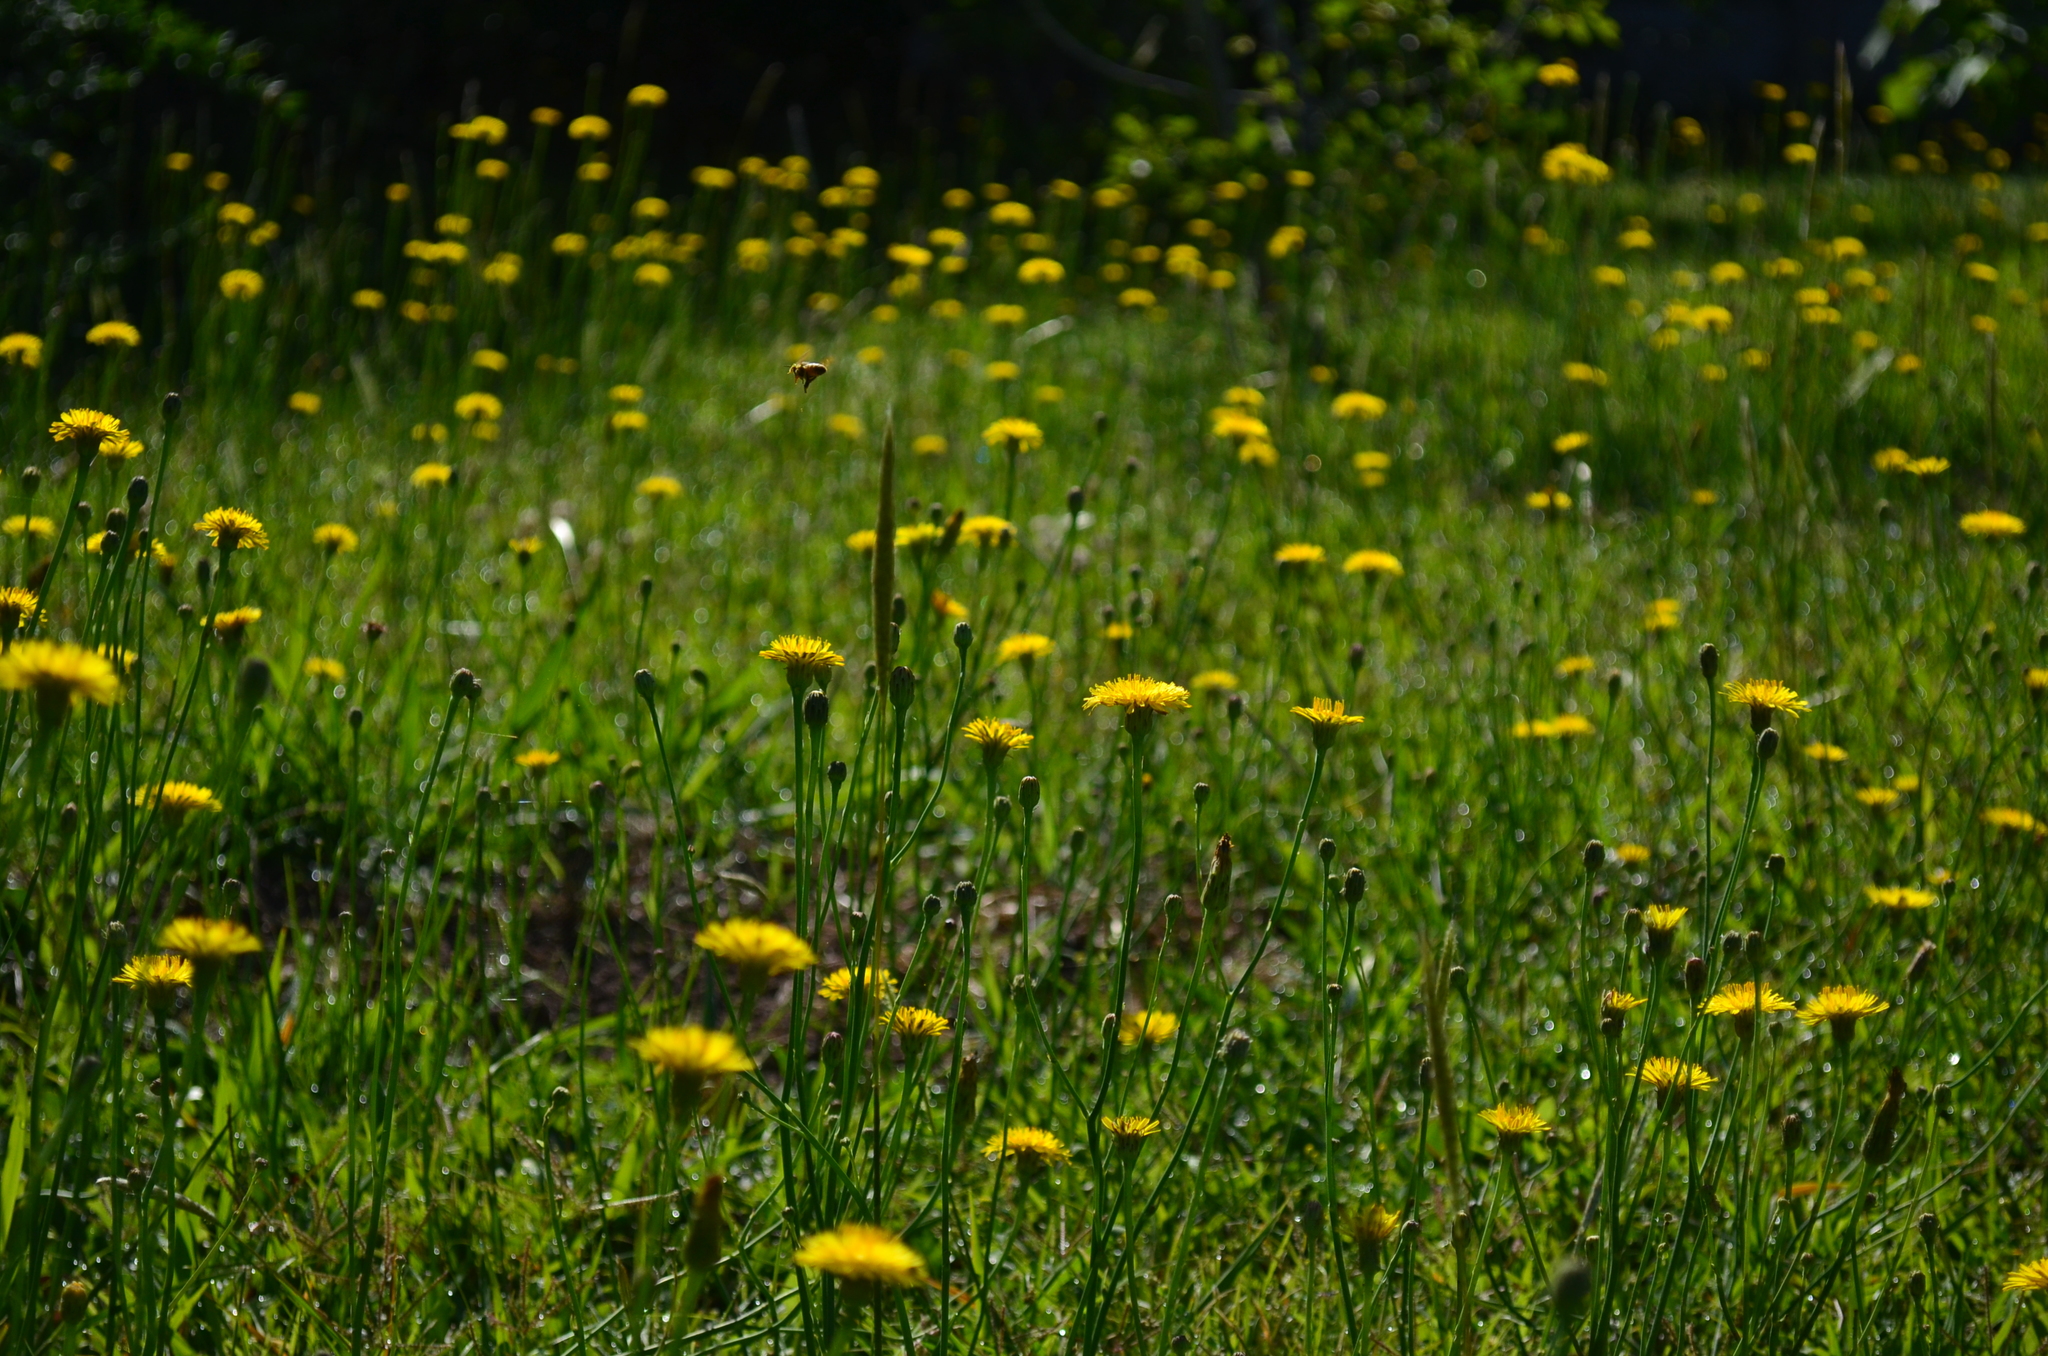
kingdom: Plantae
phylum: Tracheophyta
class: Magnoliopsida
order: Asterales
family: Asteraceae
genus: Hypochaeris
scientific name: Hypochaeris radicata
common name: Flatweed
